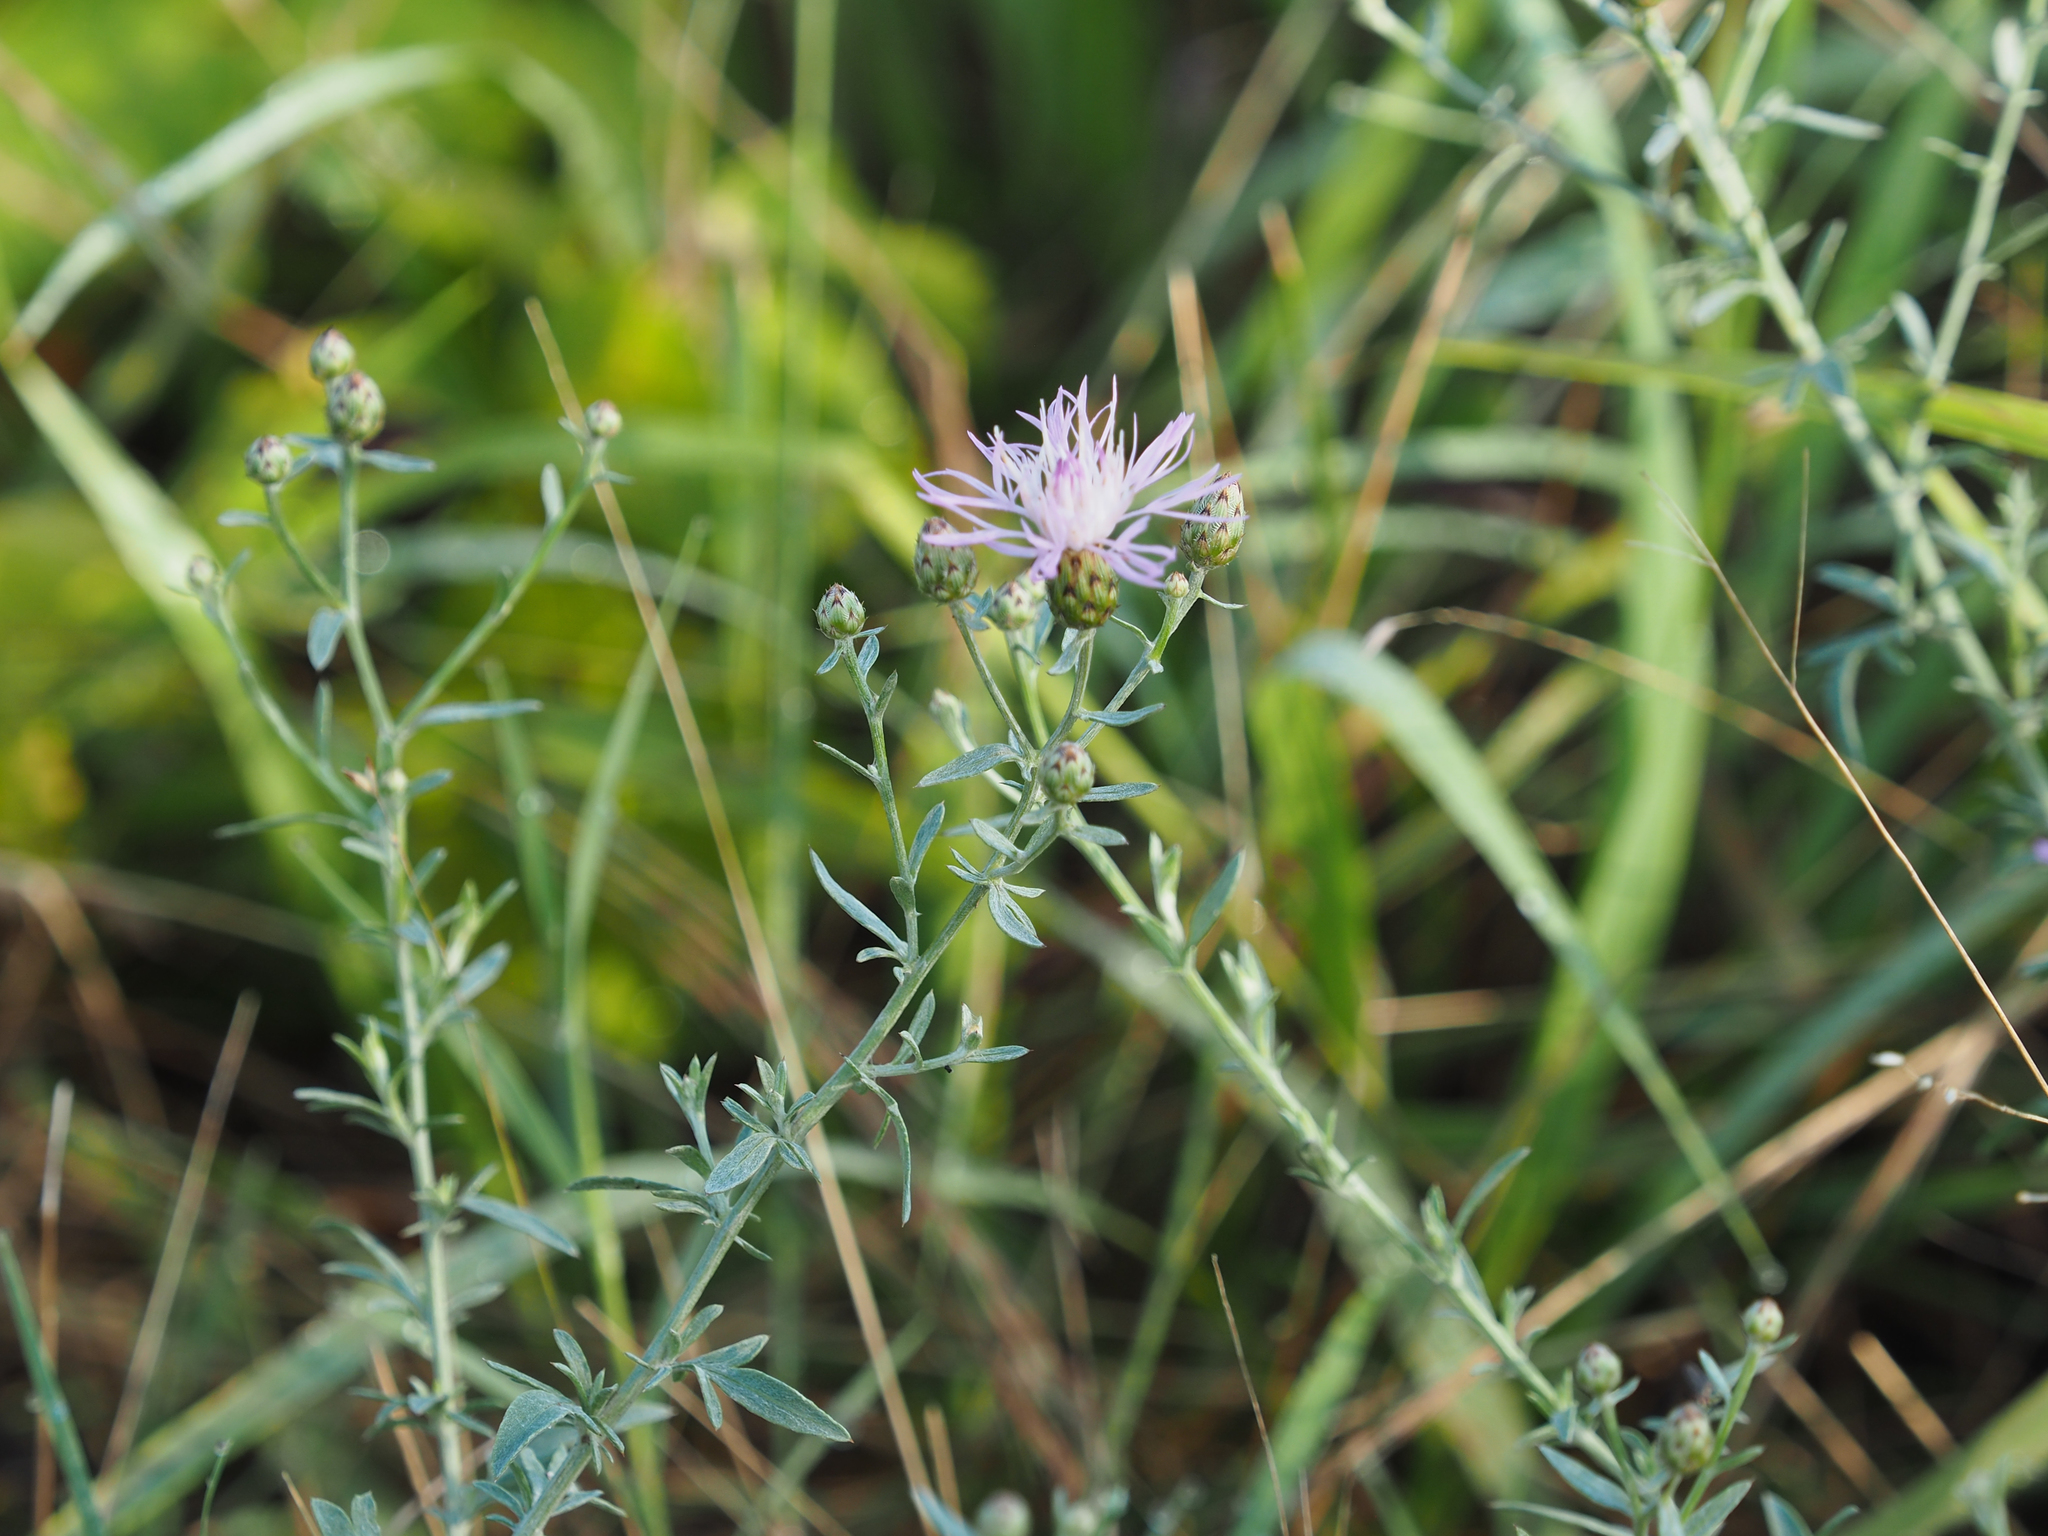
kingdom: Plantae
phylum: Tracheophyta
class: Magnoliopsida
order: Asterales
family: Asteraceae
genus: Centaurea
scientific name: Centaurea stoebe
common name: Spotted knapweed
